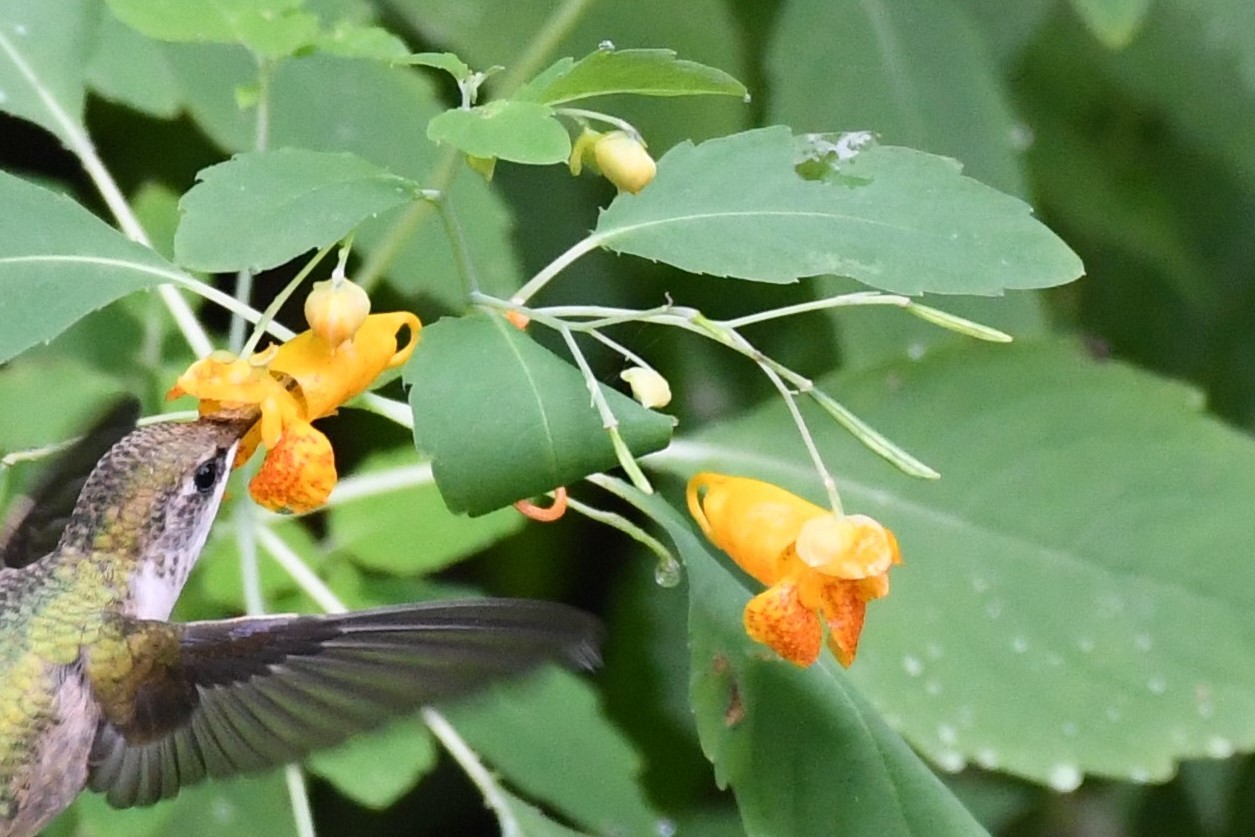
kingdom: Plantae
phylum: Tracheophyta
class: Magnoliopsida
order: Ericales
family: Balsaminaceae
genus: Impatiens
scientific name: Impatiens capensis
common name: Orange balsam
